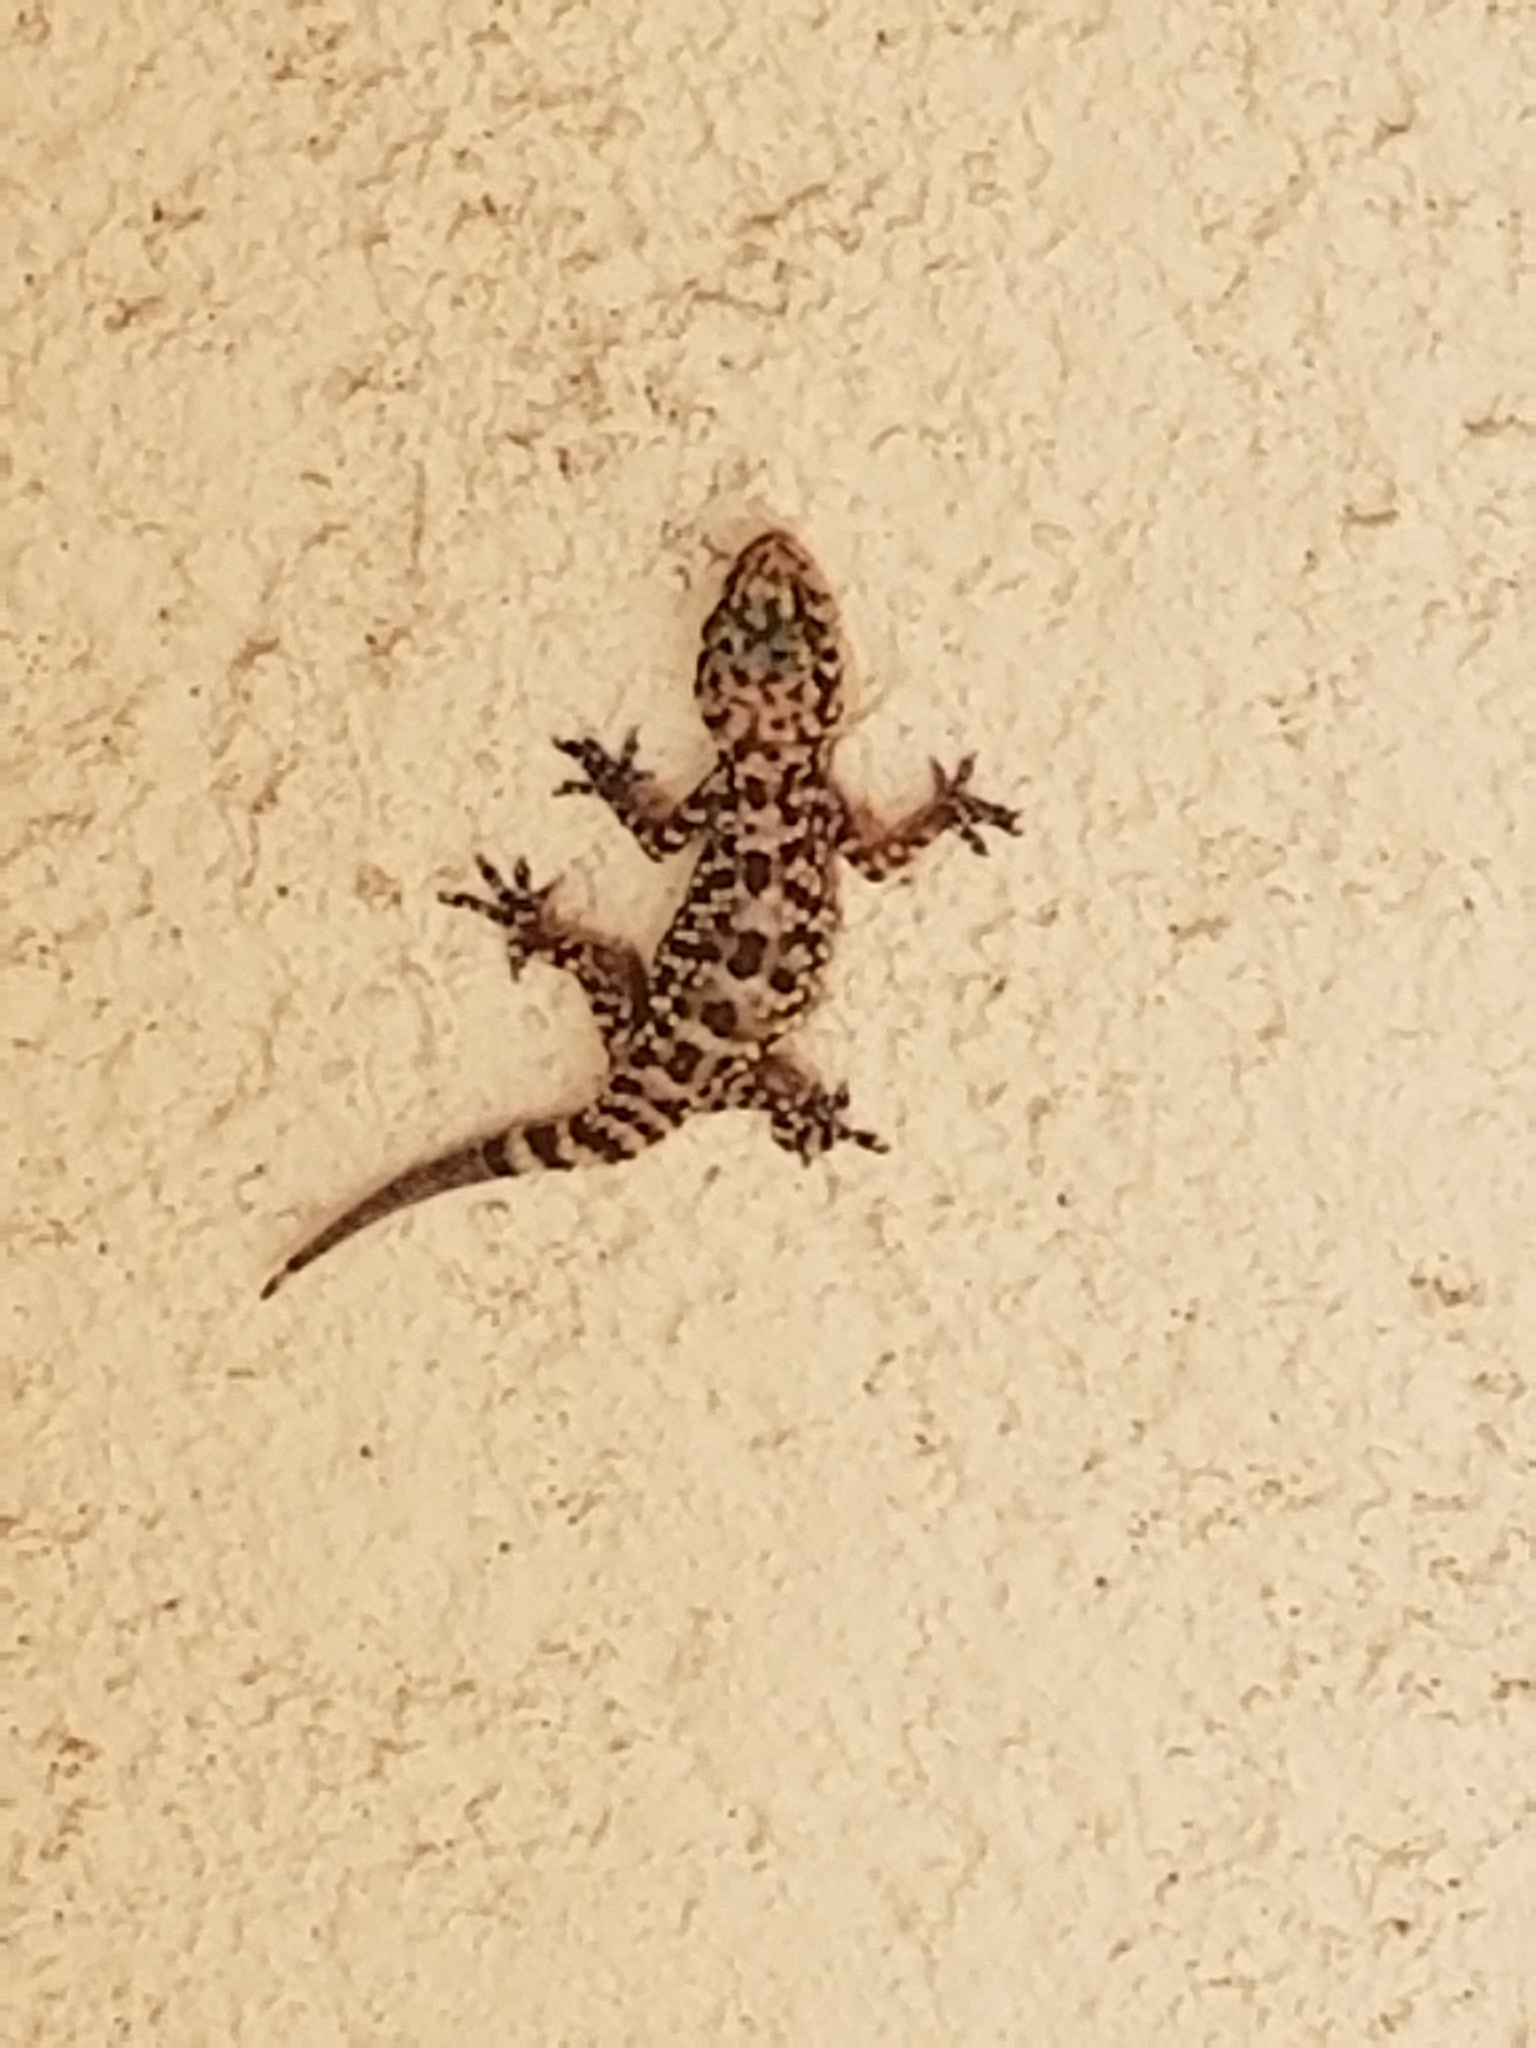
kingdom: Animalia
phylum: Chordata
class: Squamata
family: Gekkonidae
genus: Hemidactylus
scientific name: Hemidactylus turcicus
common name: Turkish gecko
